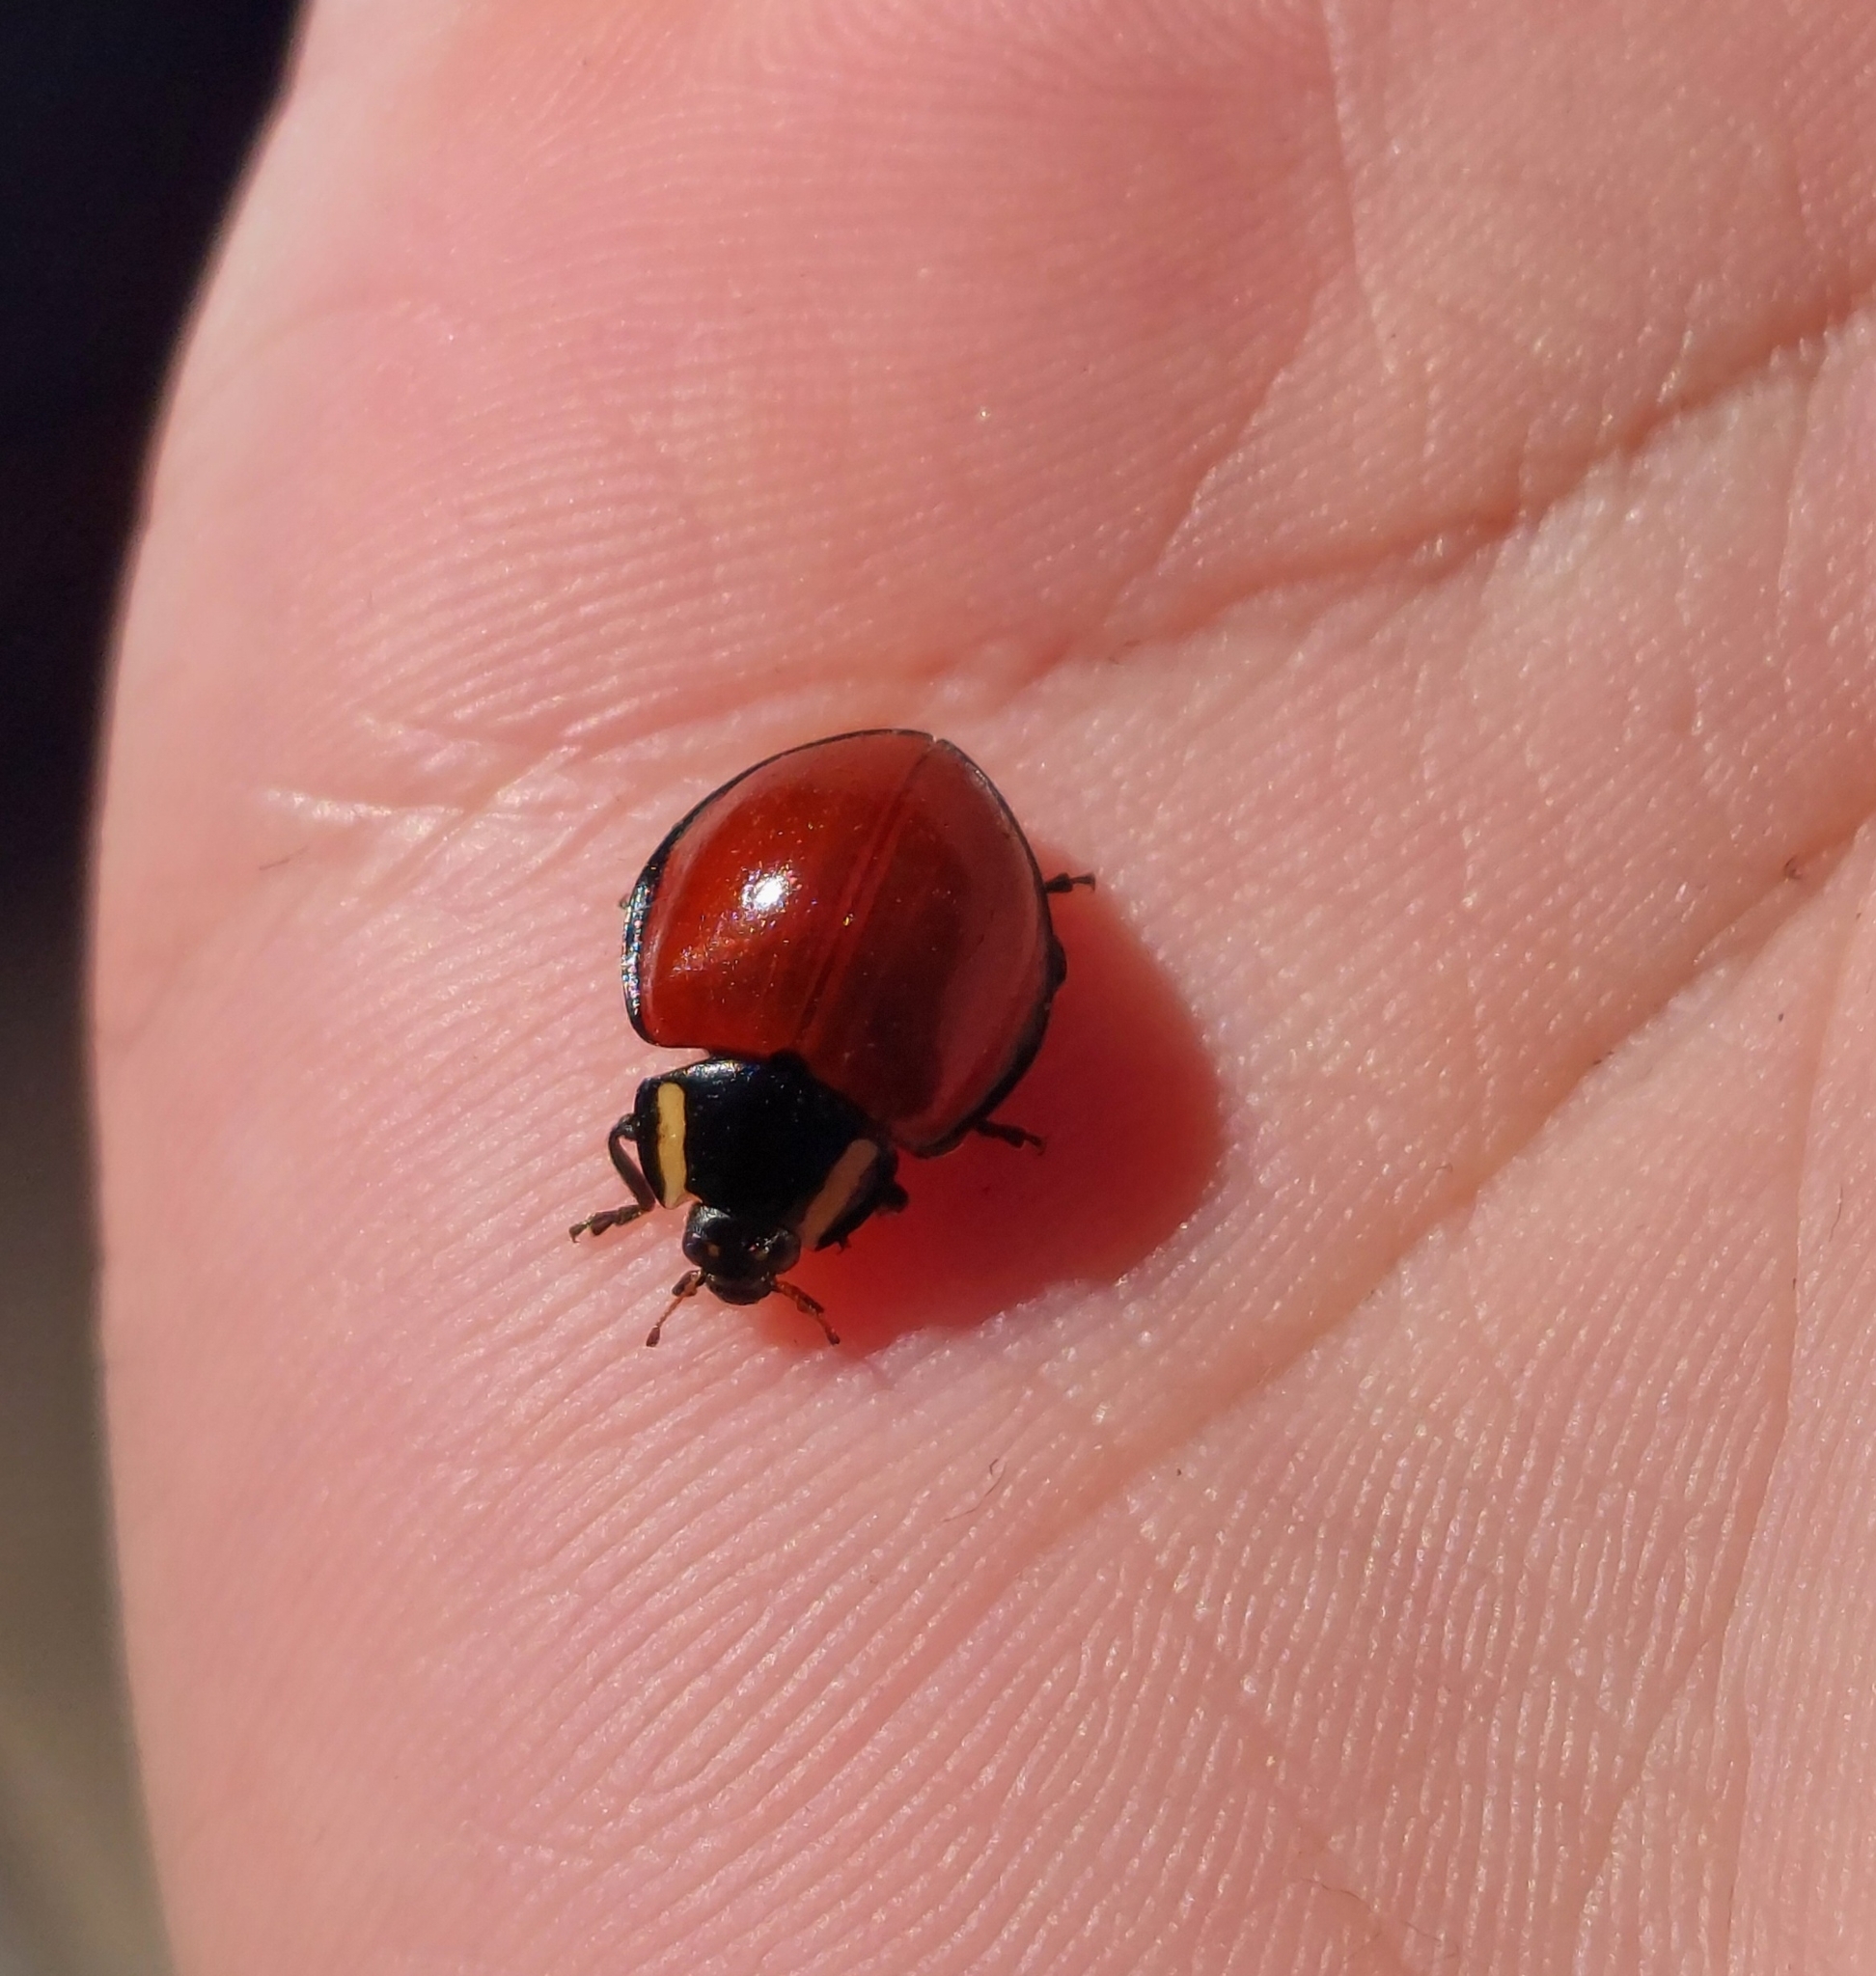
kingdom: Animalia
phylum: Arthropoda
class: Insecta
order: Coleoptera
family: Coccinellidae
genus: Anatis
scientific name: Anatis lecontei
